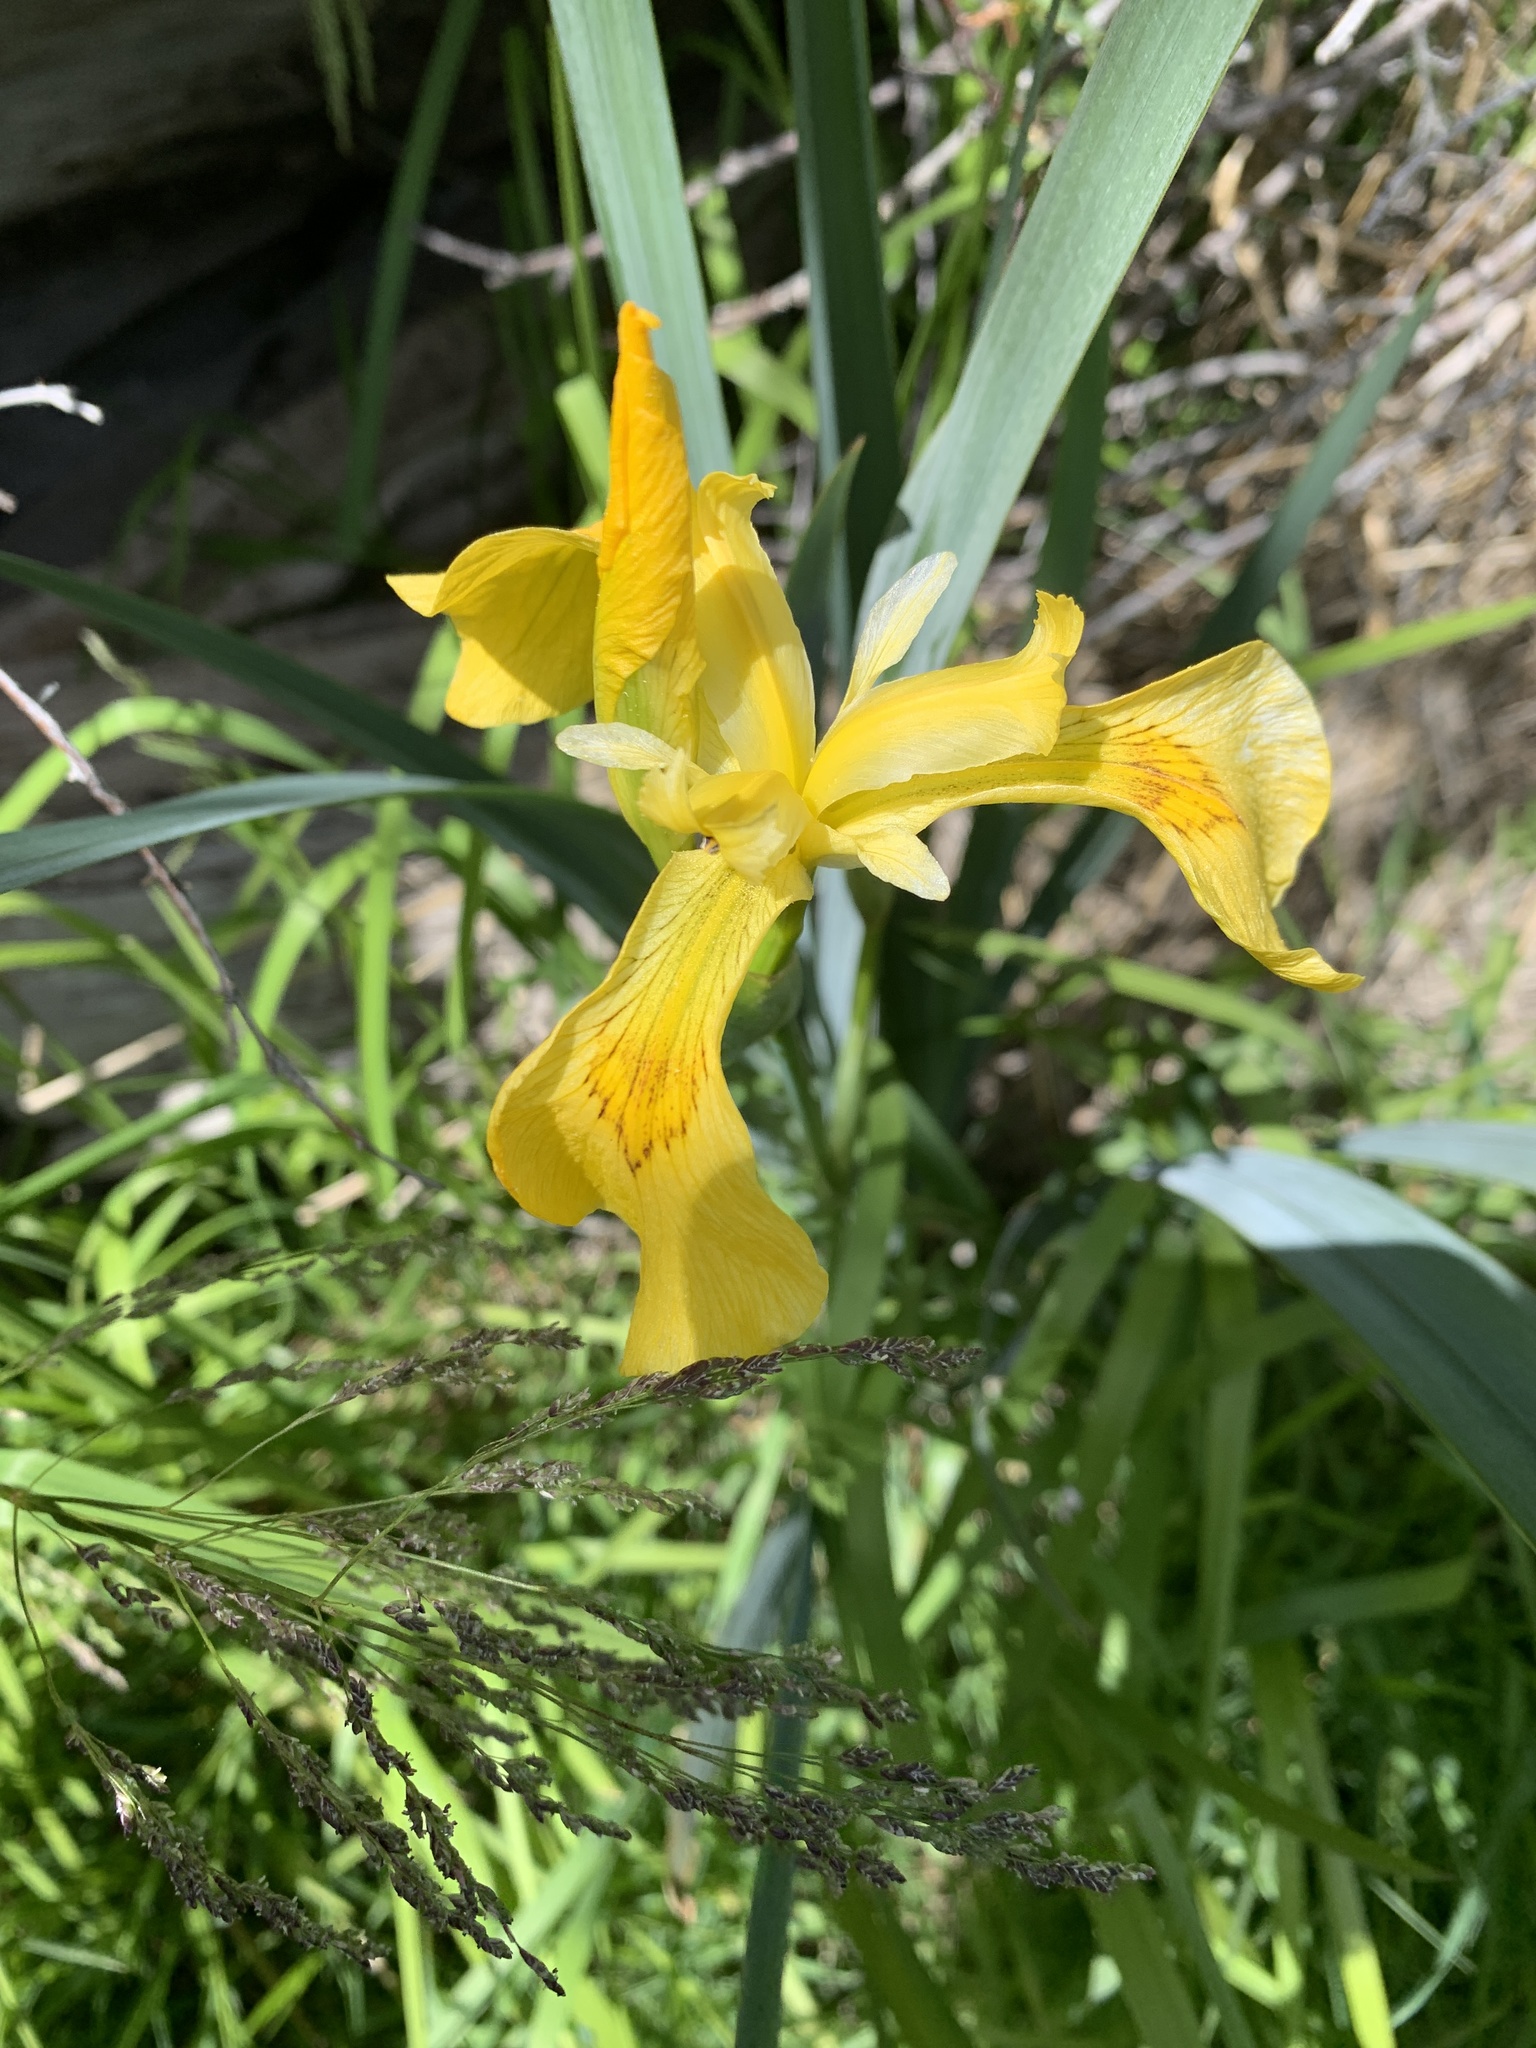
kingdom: Plantae
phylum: Tracheophyta
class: Liliopsida
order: Asparagales
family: Iridaceae
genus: Iris
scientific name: Iris pseudacorus
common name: Yellow flag
